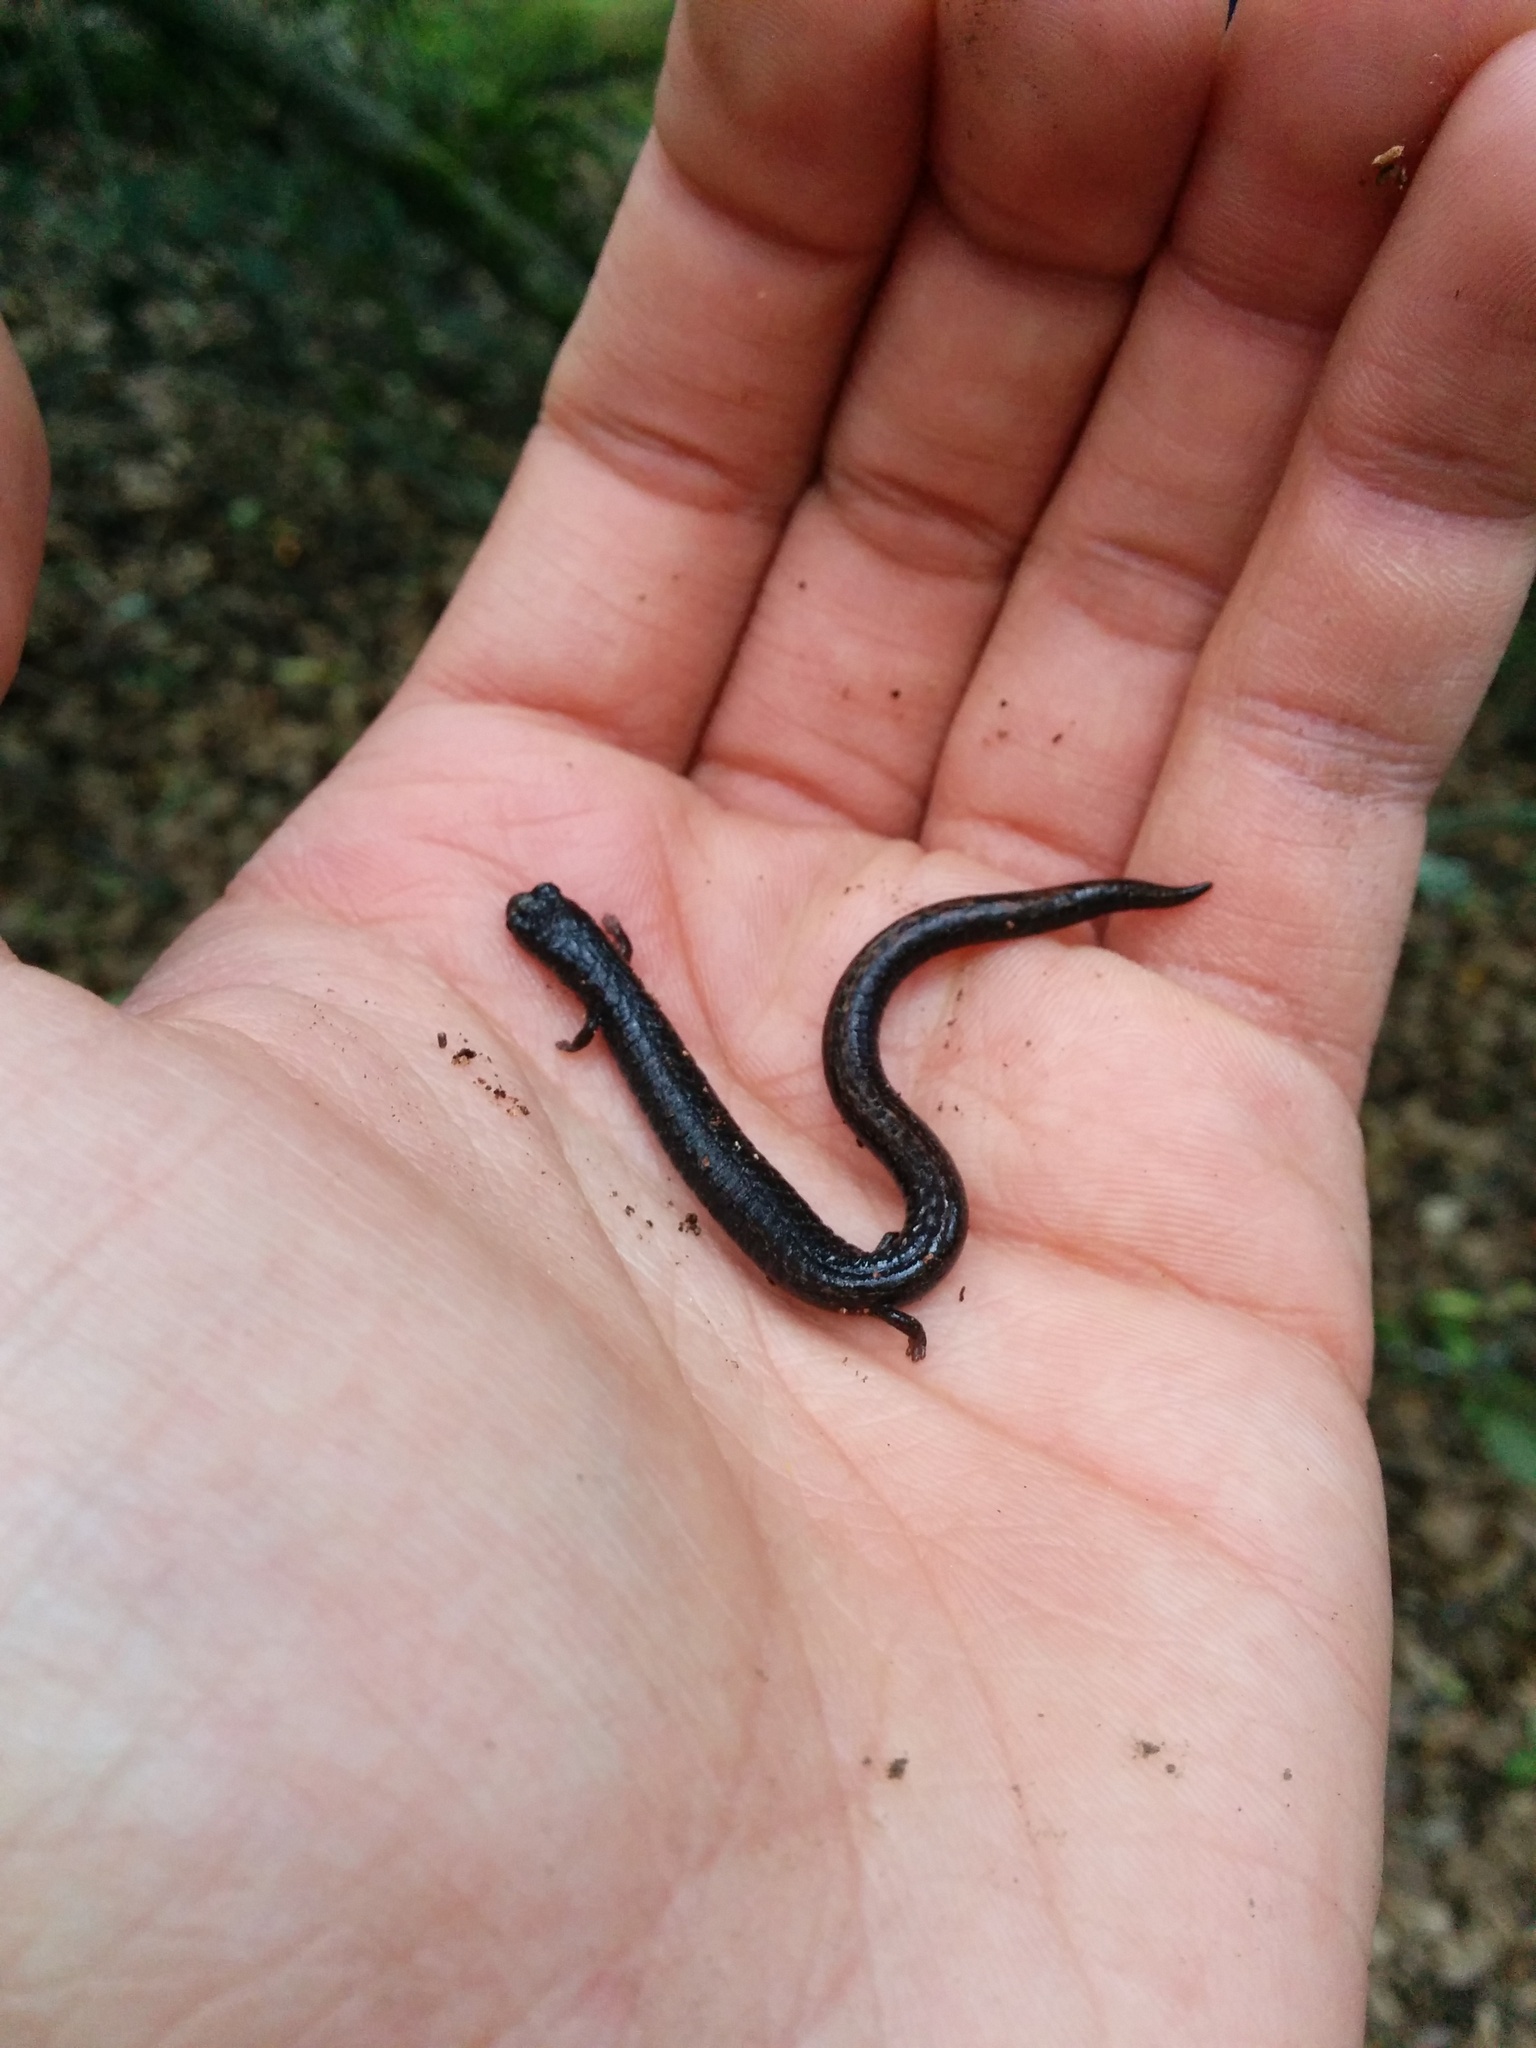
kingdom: Animalia
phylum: Chordata
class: Amphibia
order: Caudata
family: Plethodontidae
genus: Batrachoseps
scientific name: Batrachoseps attenuatus
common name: California slender salamander
